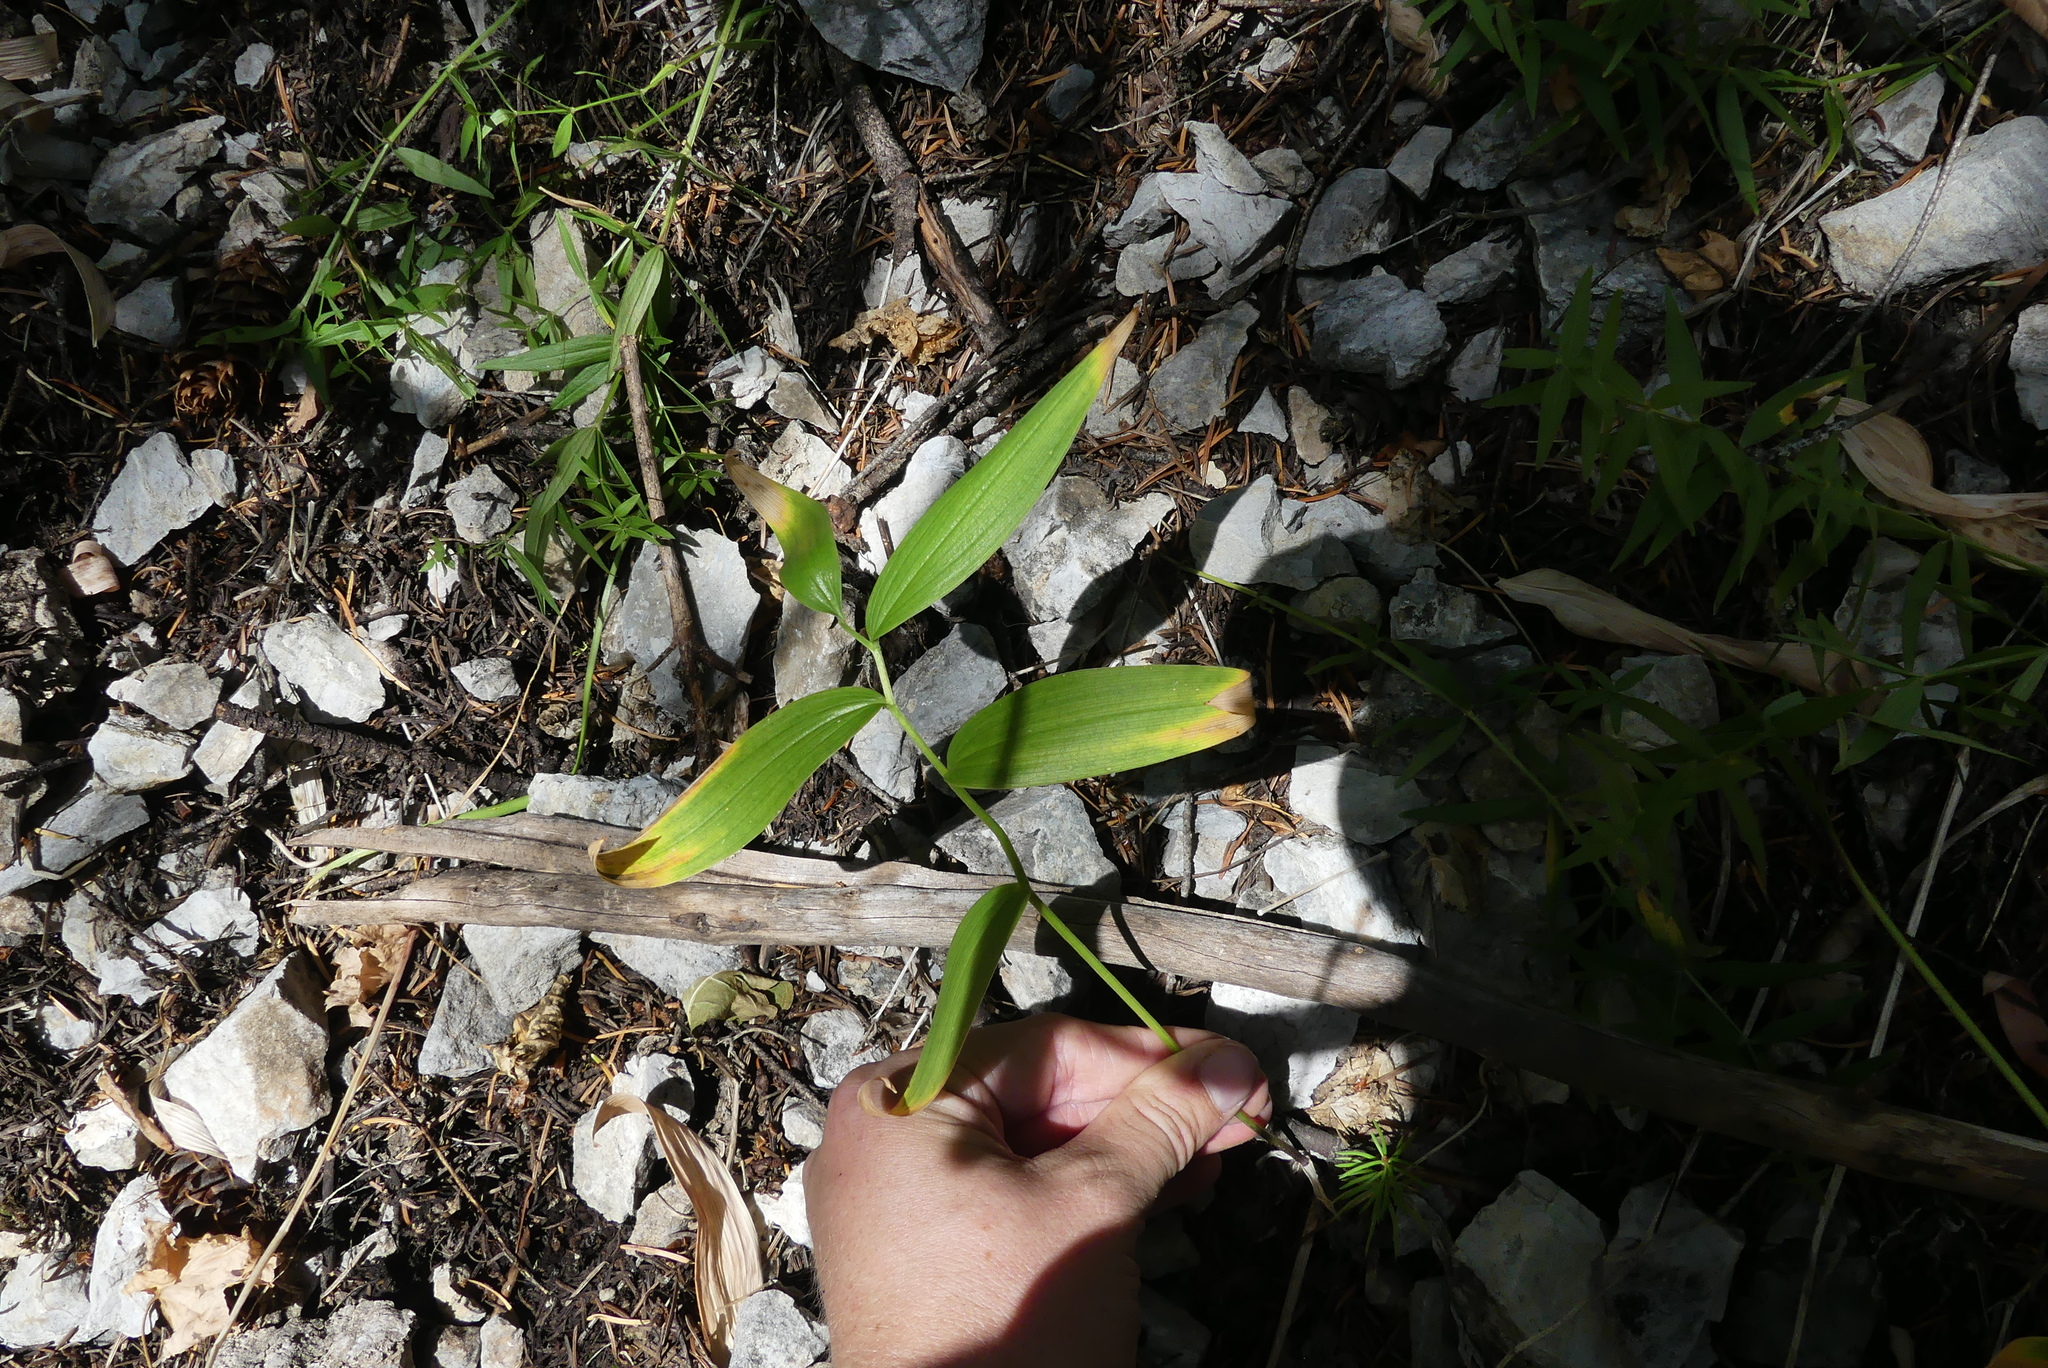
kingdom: Plantae
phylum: Tracheophyta
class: Liliopsida
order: Asparagales
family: Asparagaceae
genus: Maianthemum
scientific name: Maianthemum stellatum
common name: Little false solomon's seal
